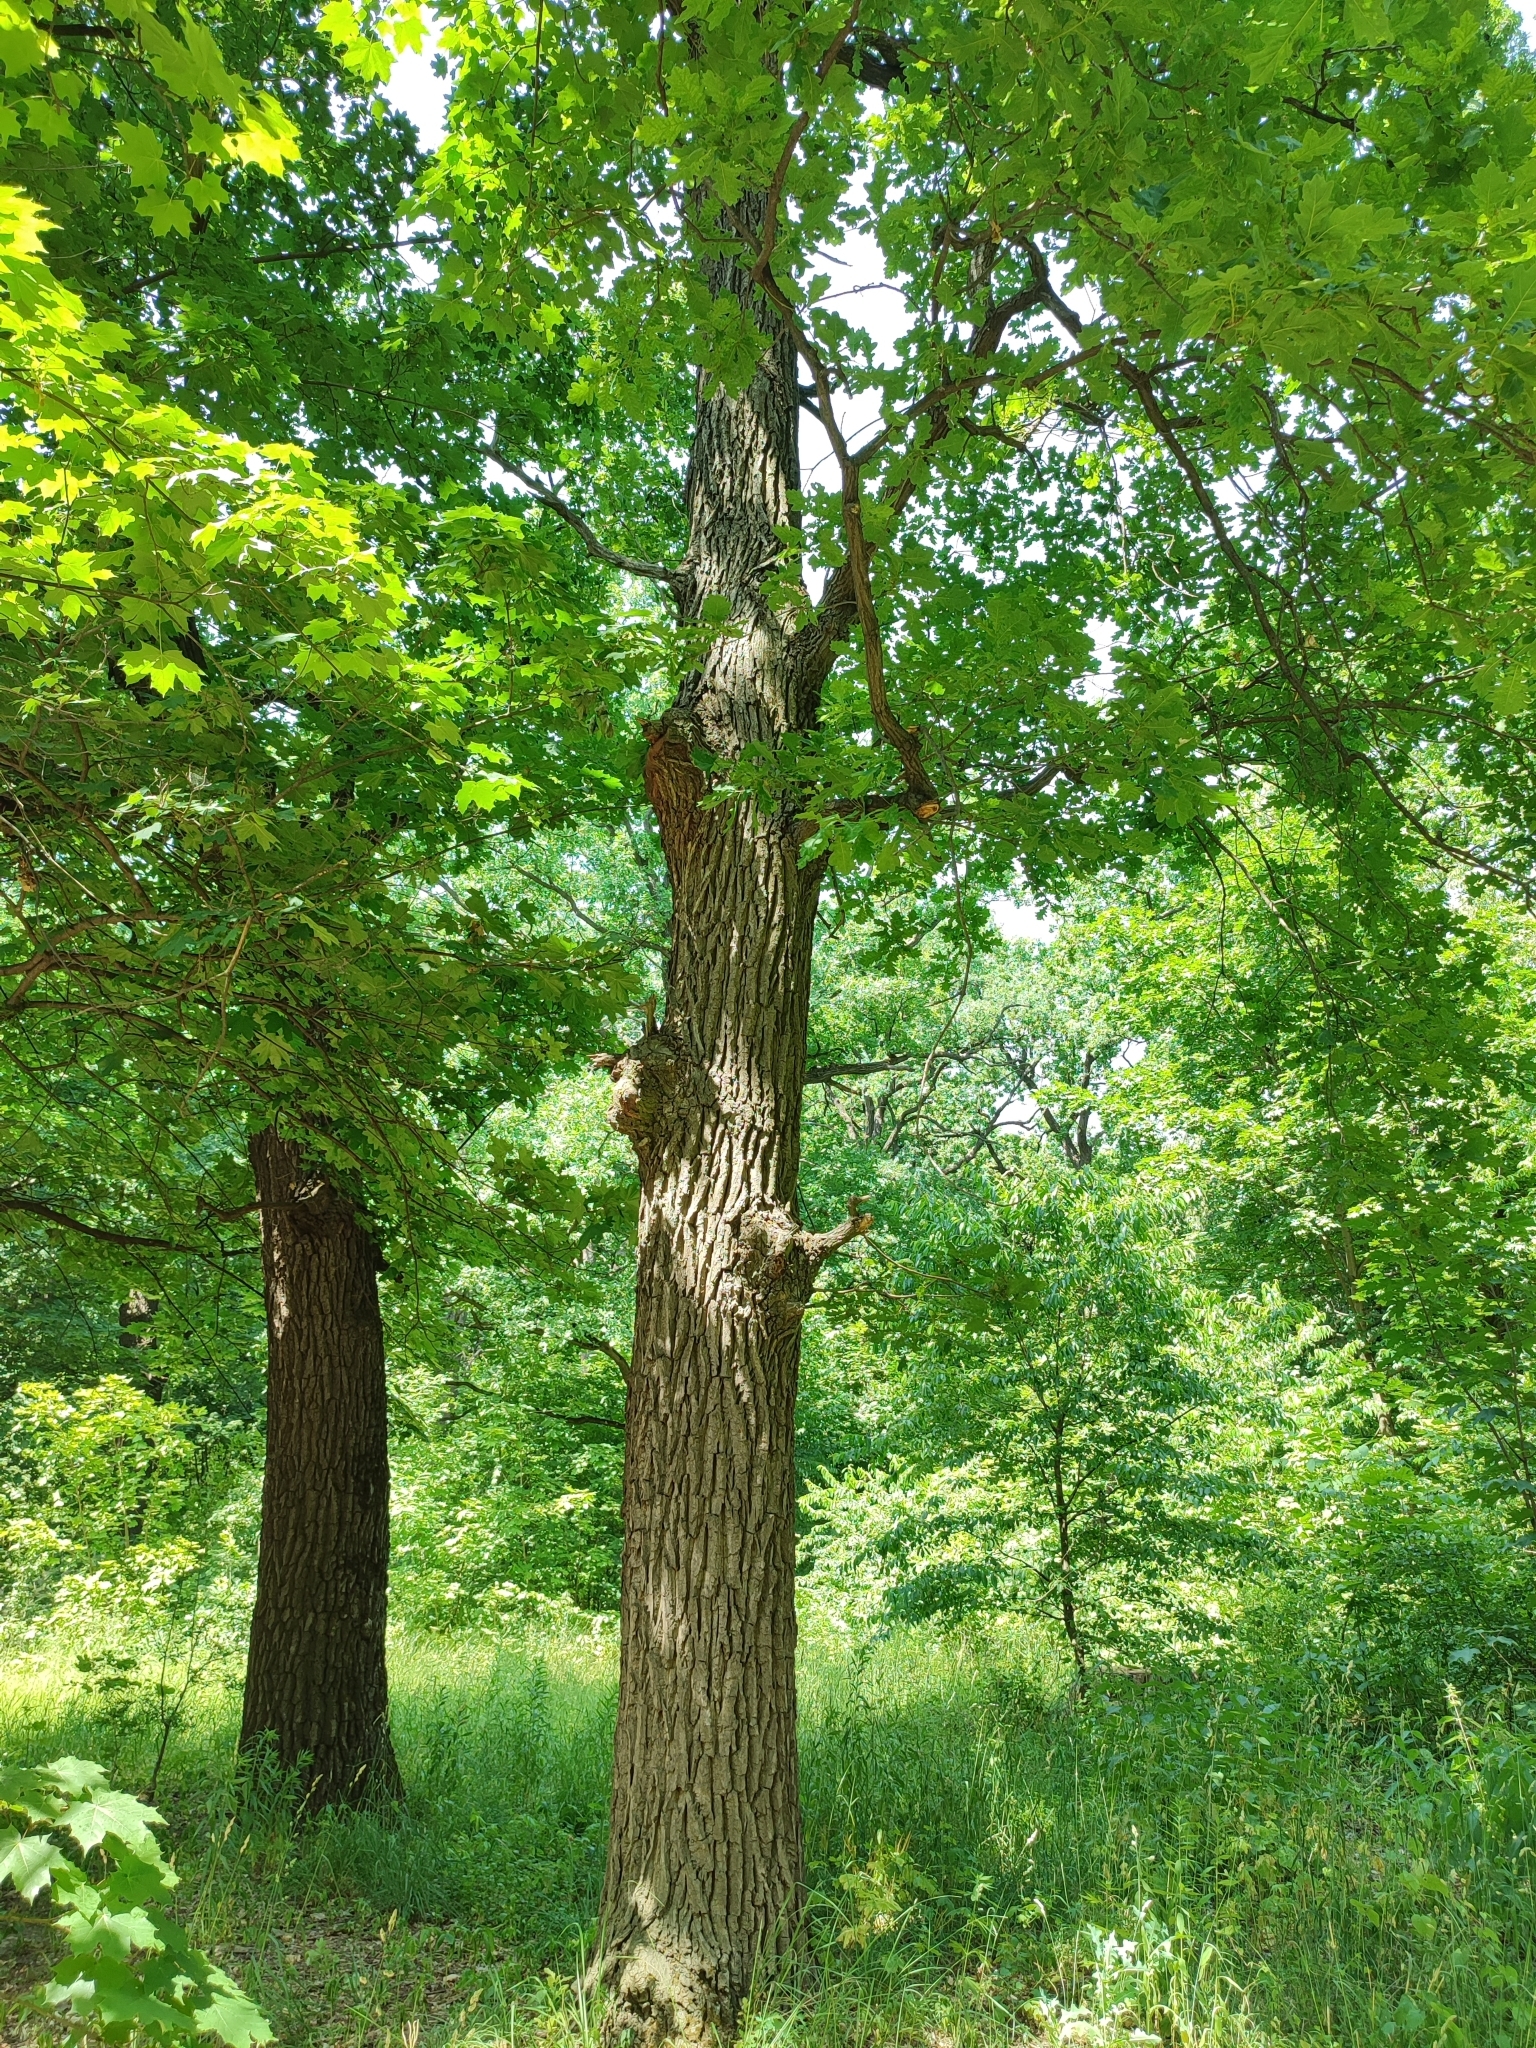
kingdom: Plantae
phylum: Tracheophyta
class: Magnoliopsida
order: Fagales
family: Fagaceae
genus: Quercus
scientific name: Quercus robur
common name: Pedunculate oak
